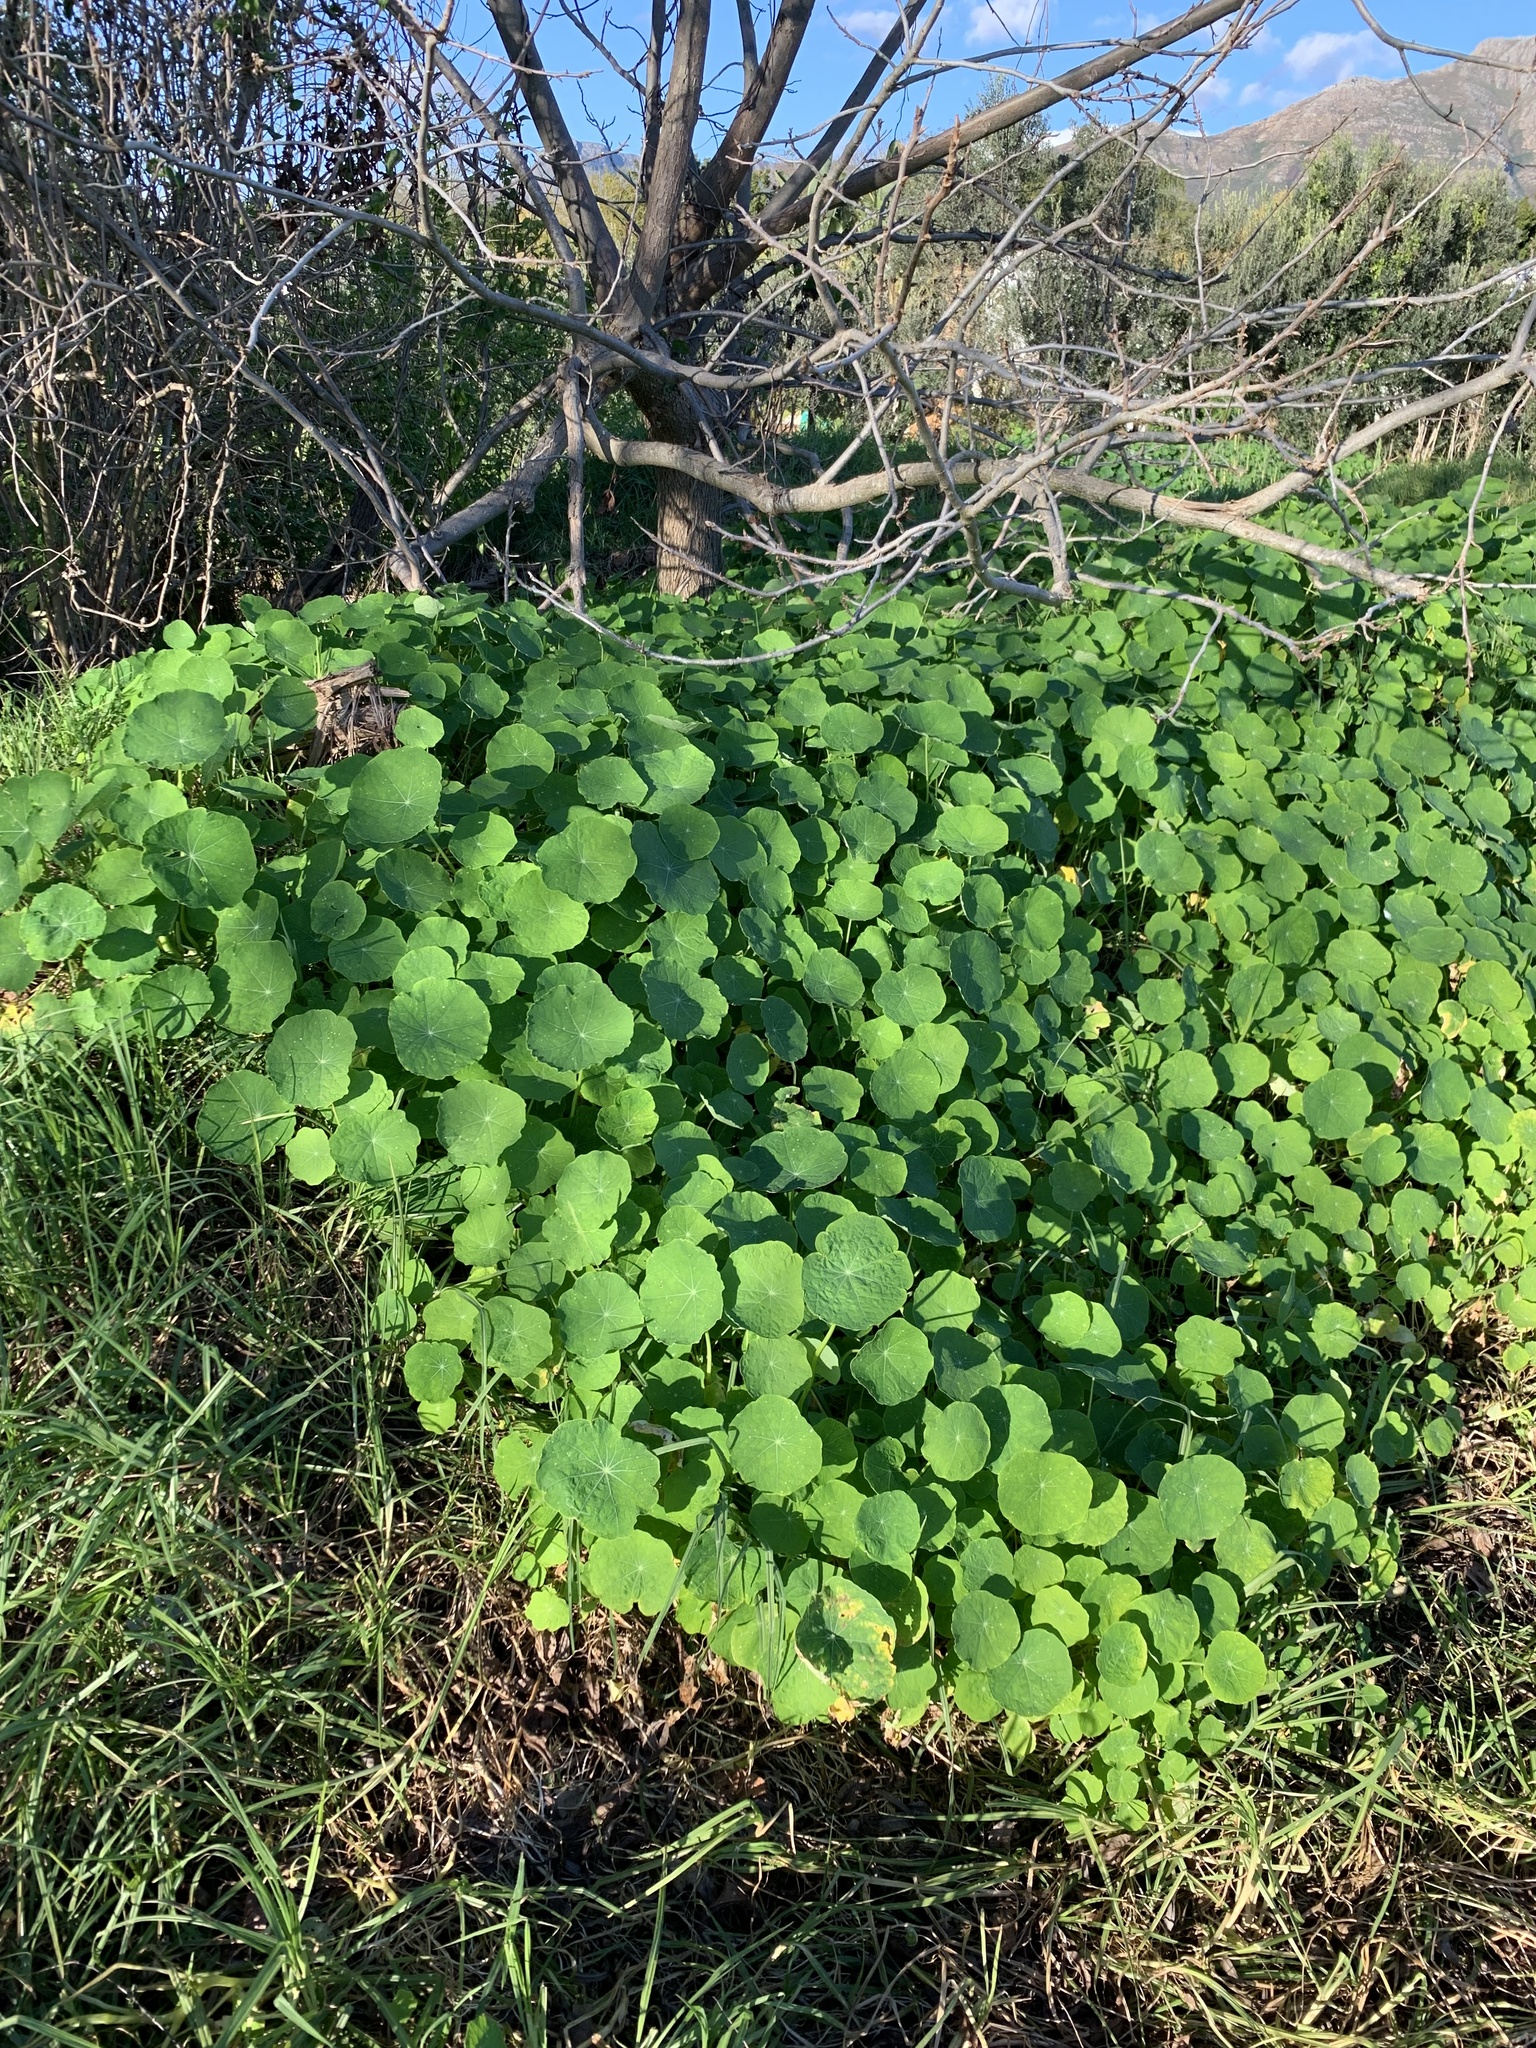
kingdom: Plantae
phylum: Tracheophyta
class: Magnoliopsida
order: Brassicales
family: Tropaeolaceae
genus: Tropaeolum
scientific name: Tropaeolum majus
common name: Nasturtium
